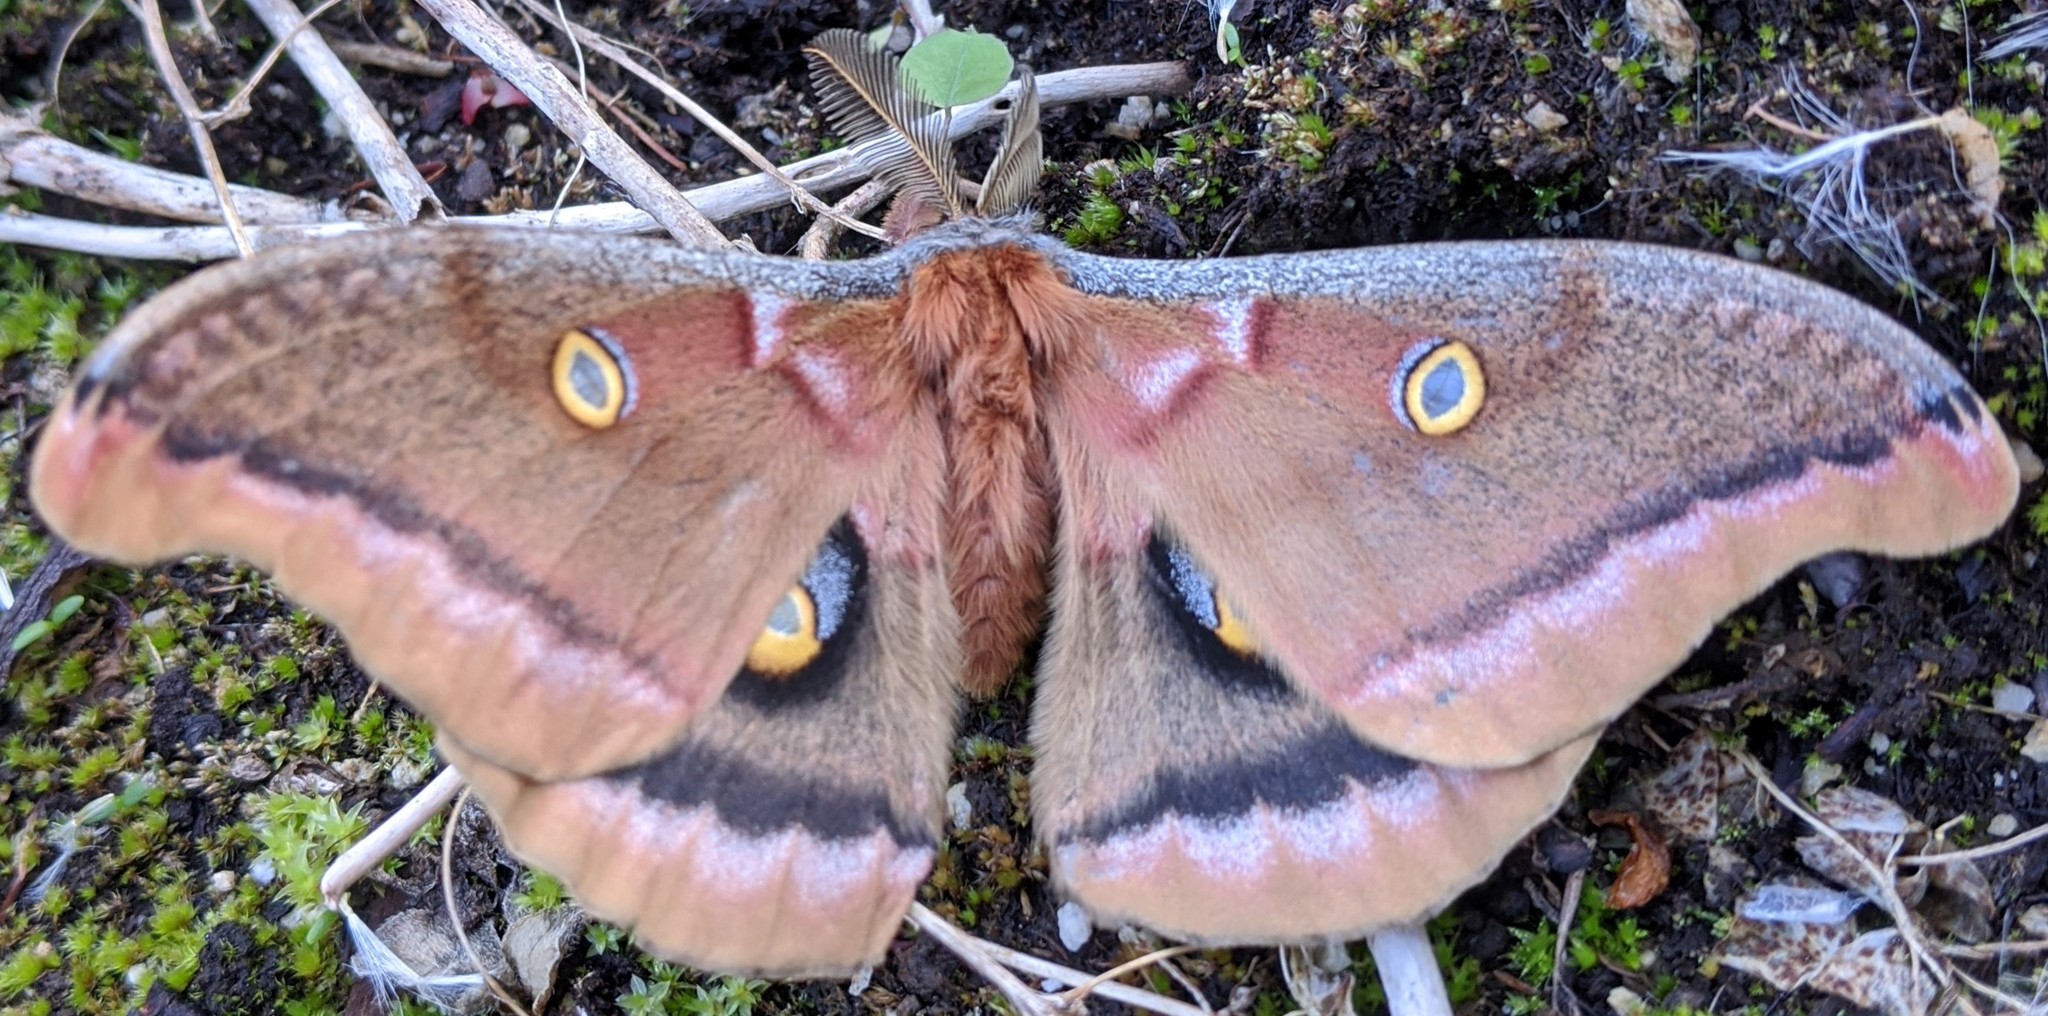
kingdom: Animalia
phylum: Arthropoda
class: Insecta
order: Lepidoptera
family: Saturniidae
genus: Antheraea
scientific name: Antheraea polyphemus
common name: Polyphemus moth
